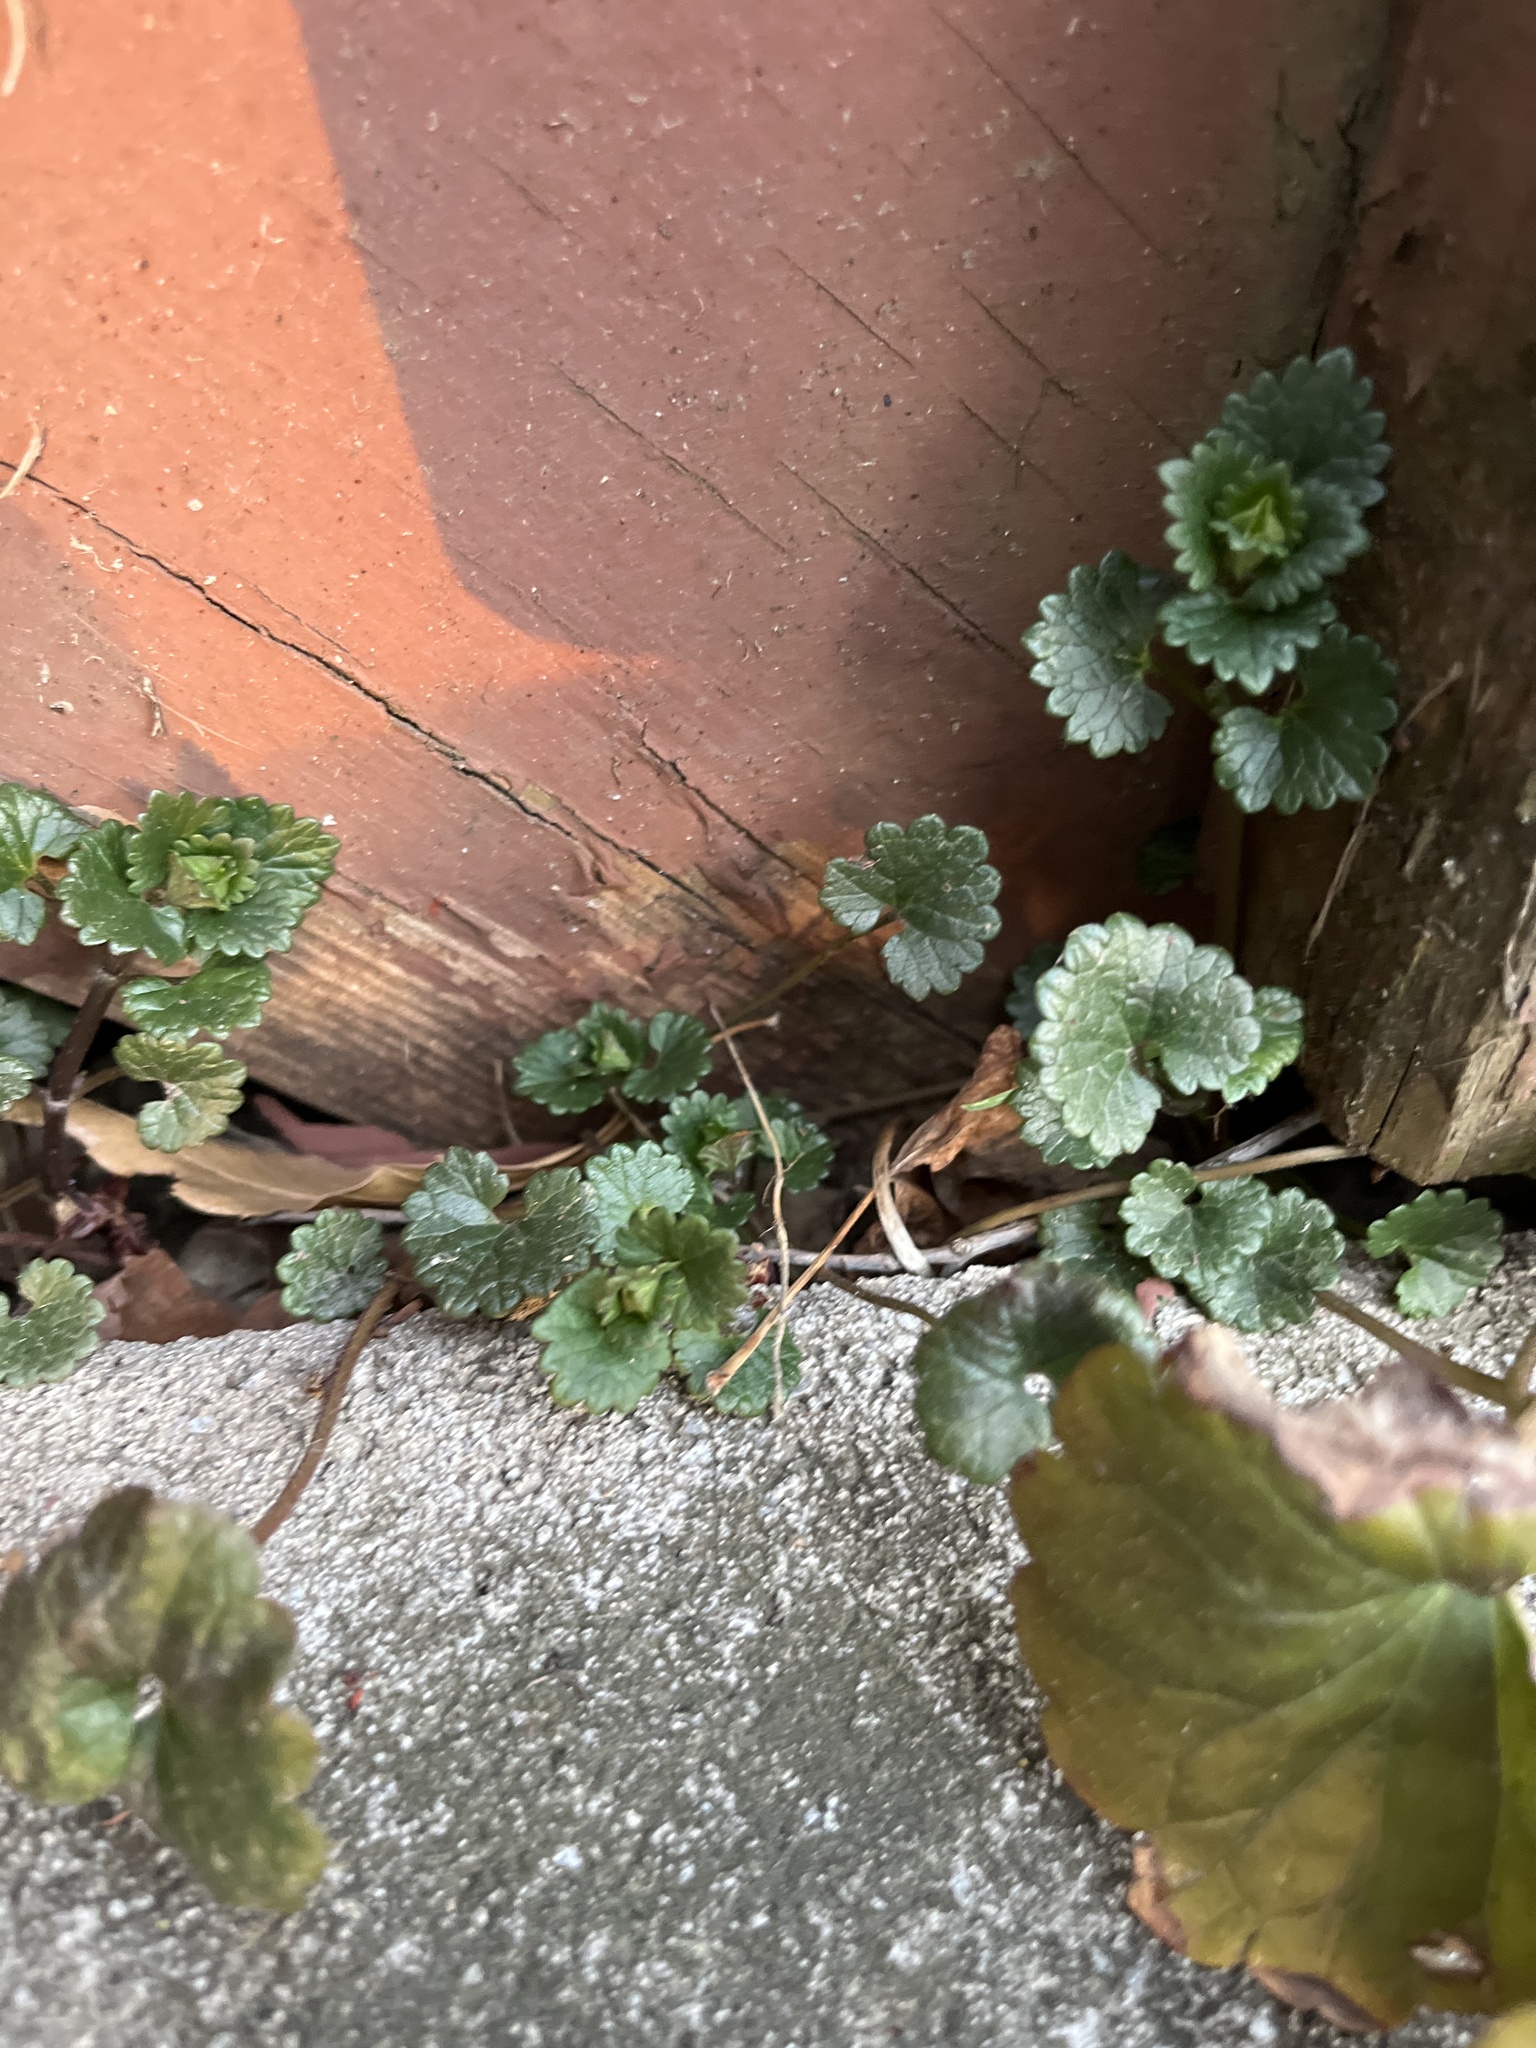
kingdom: Plantae
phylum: Tracheophyta
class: Magnoliopsida
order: Lamiales
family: Lamiaceae
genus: Glechoma
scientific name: Glechoma hederacea
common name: Ground ivy
